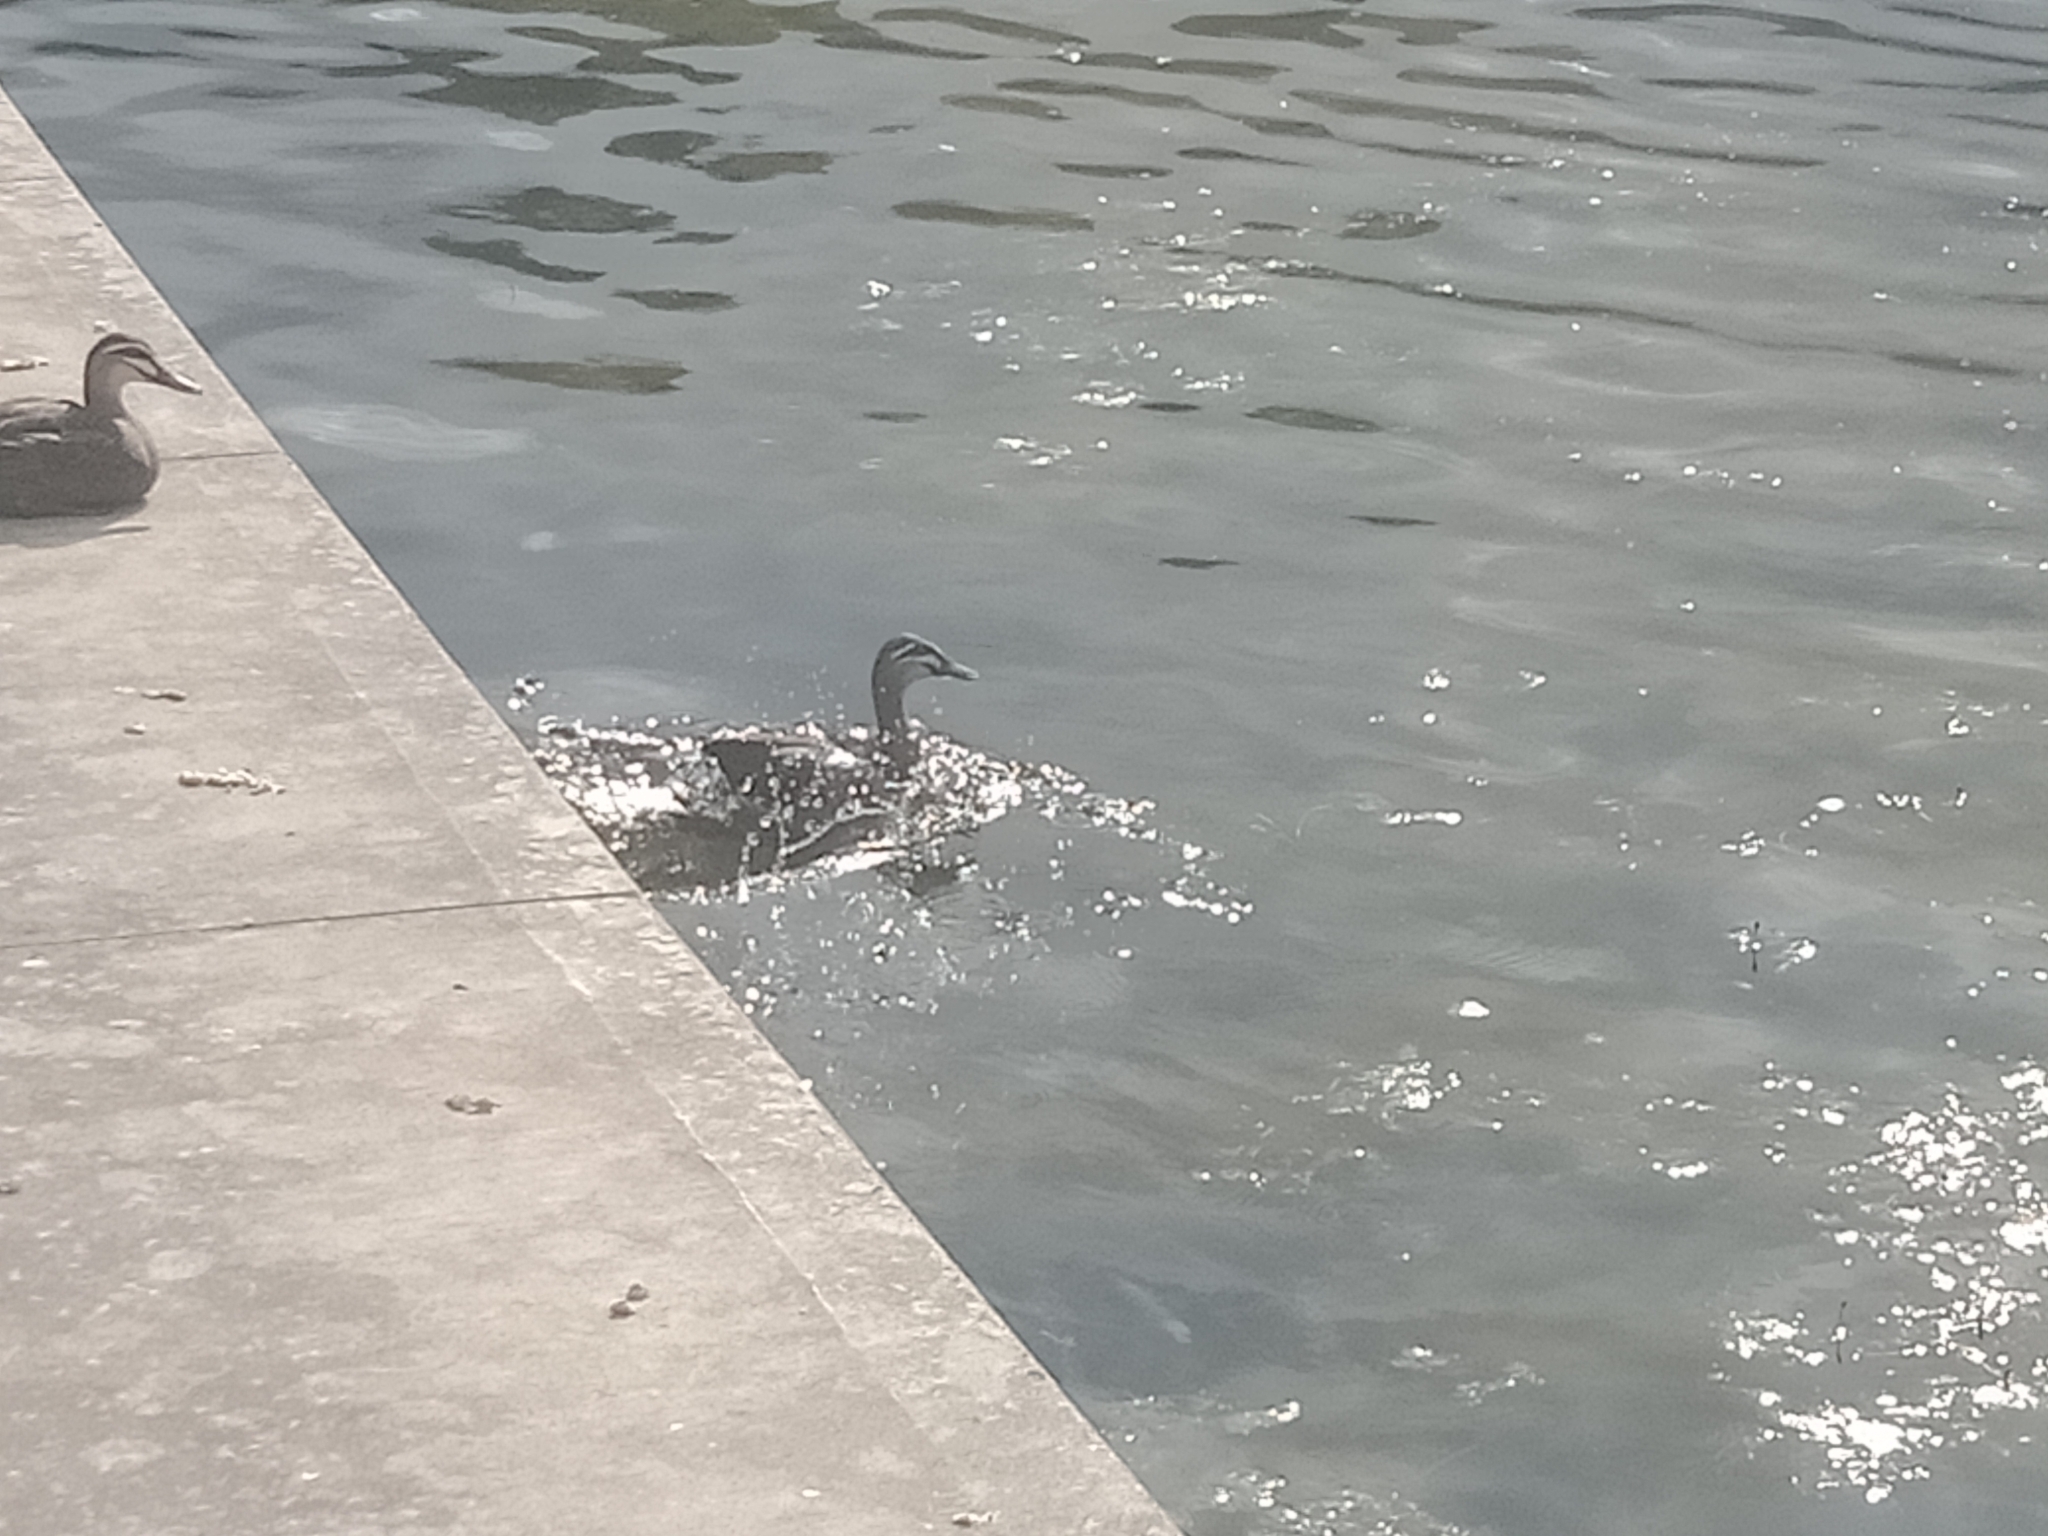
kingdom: Animalia
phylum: Chordata
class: Aves
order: Anseriformes
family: Anatidae
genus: Anas
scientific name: Anas superciliosa
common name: Pacific black duck
